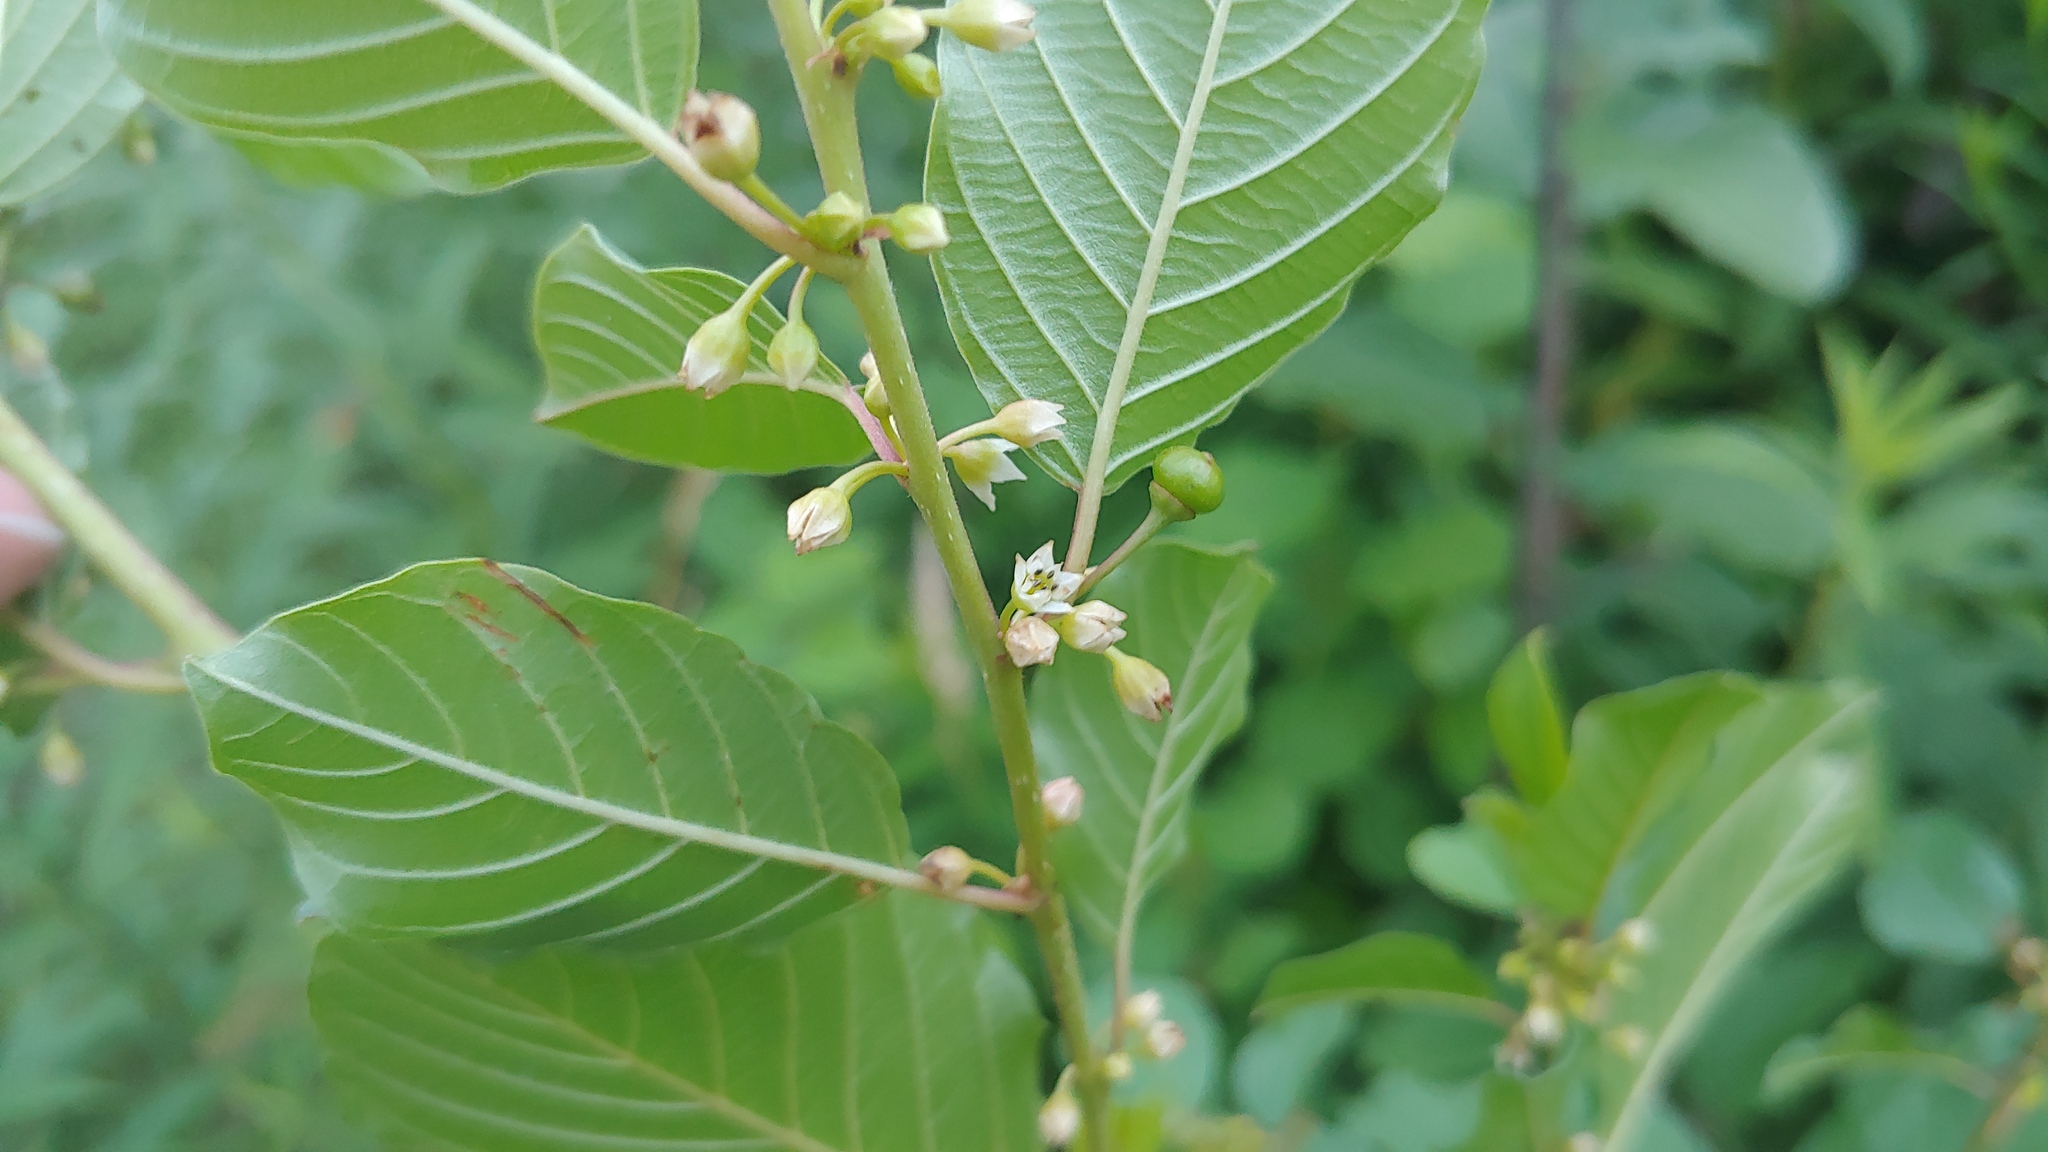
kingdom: Plantae
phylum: Tracheophyta
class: Magnoliopsida
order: Rosales
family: Rhamnaceae
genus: Frangula
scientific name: Frangula alnus
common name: Alder buckthorn
